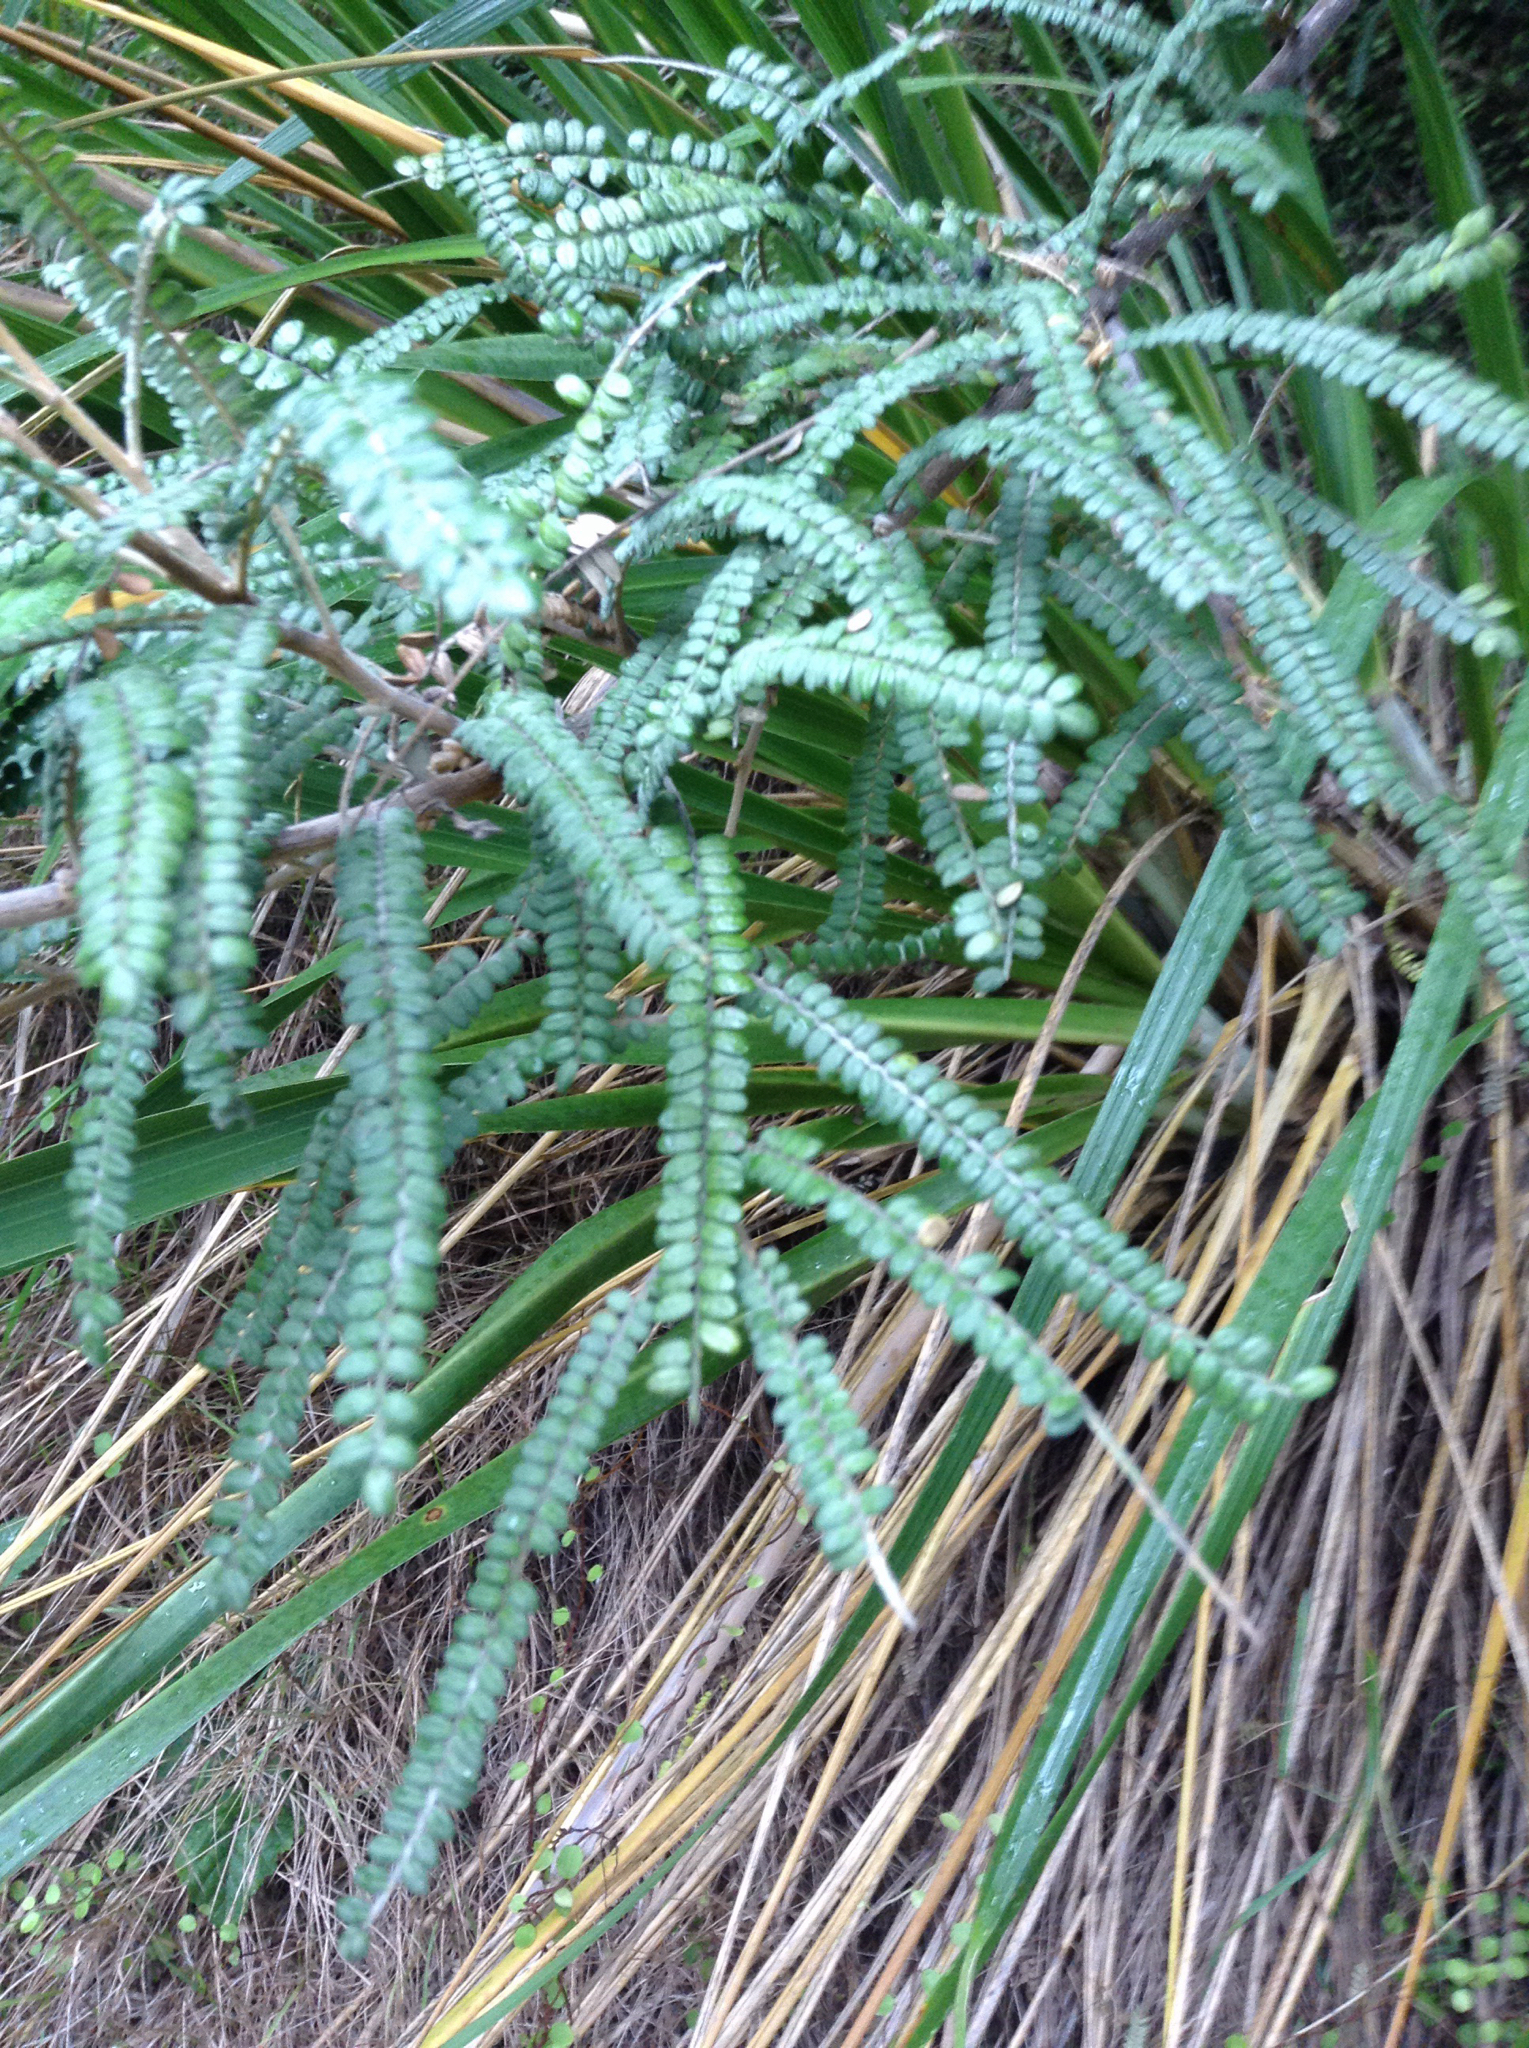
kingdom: Plantae
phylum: Tracheophyta
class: Magnoliopsida
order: Fabales
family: Fabaceae
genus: Sophora
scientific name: Sophora fulvida
